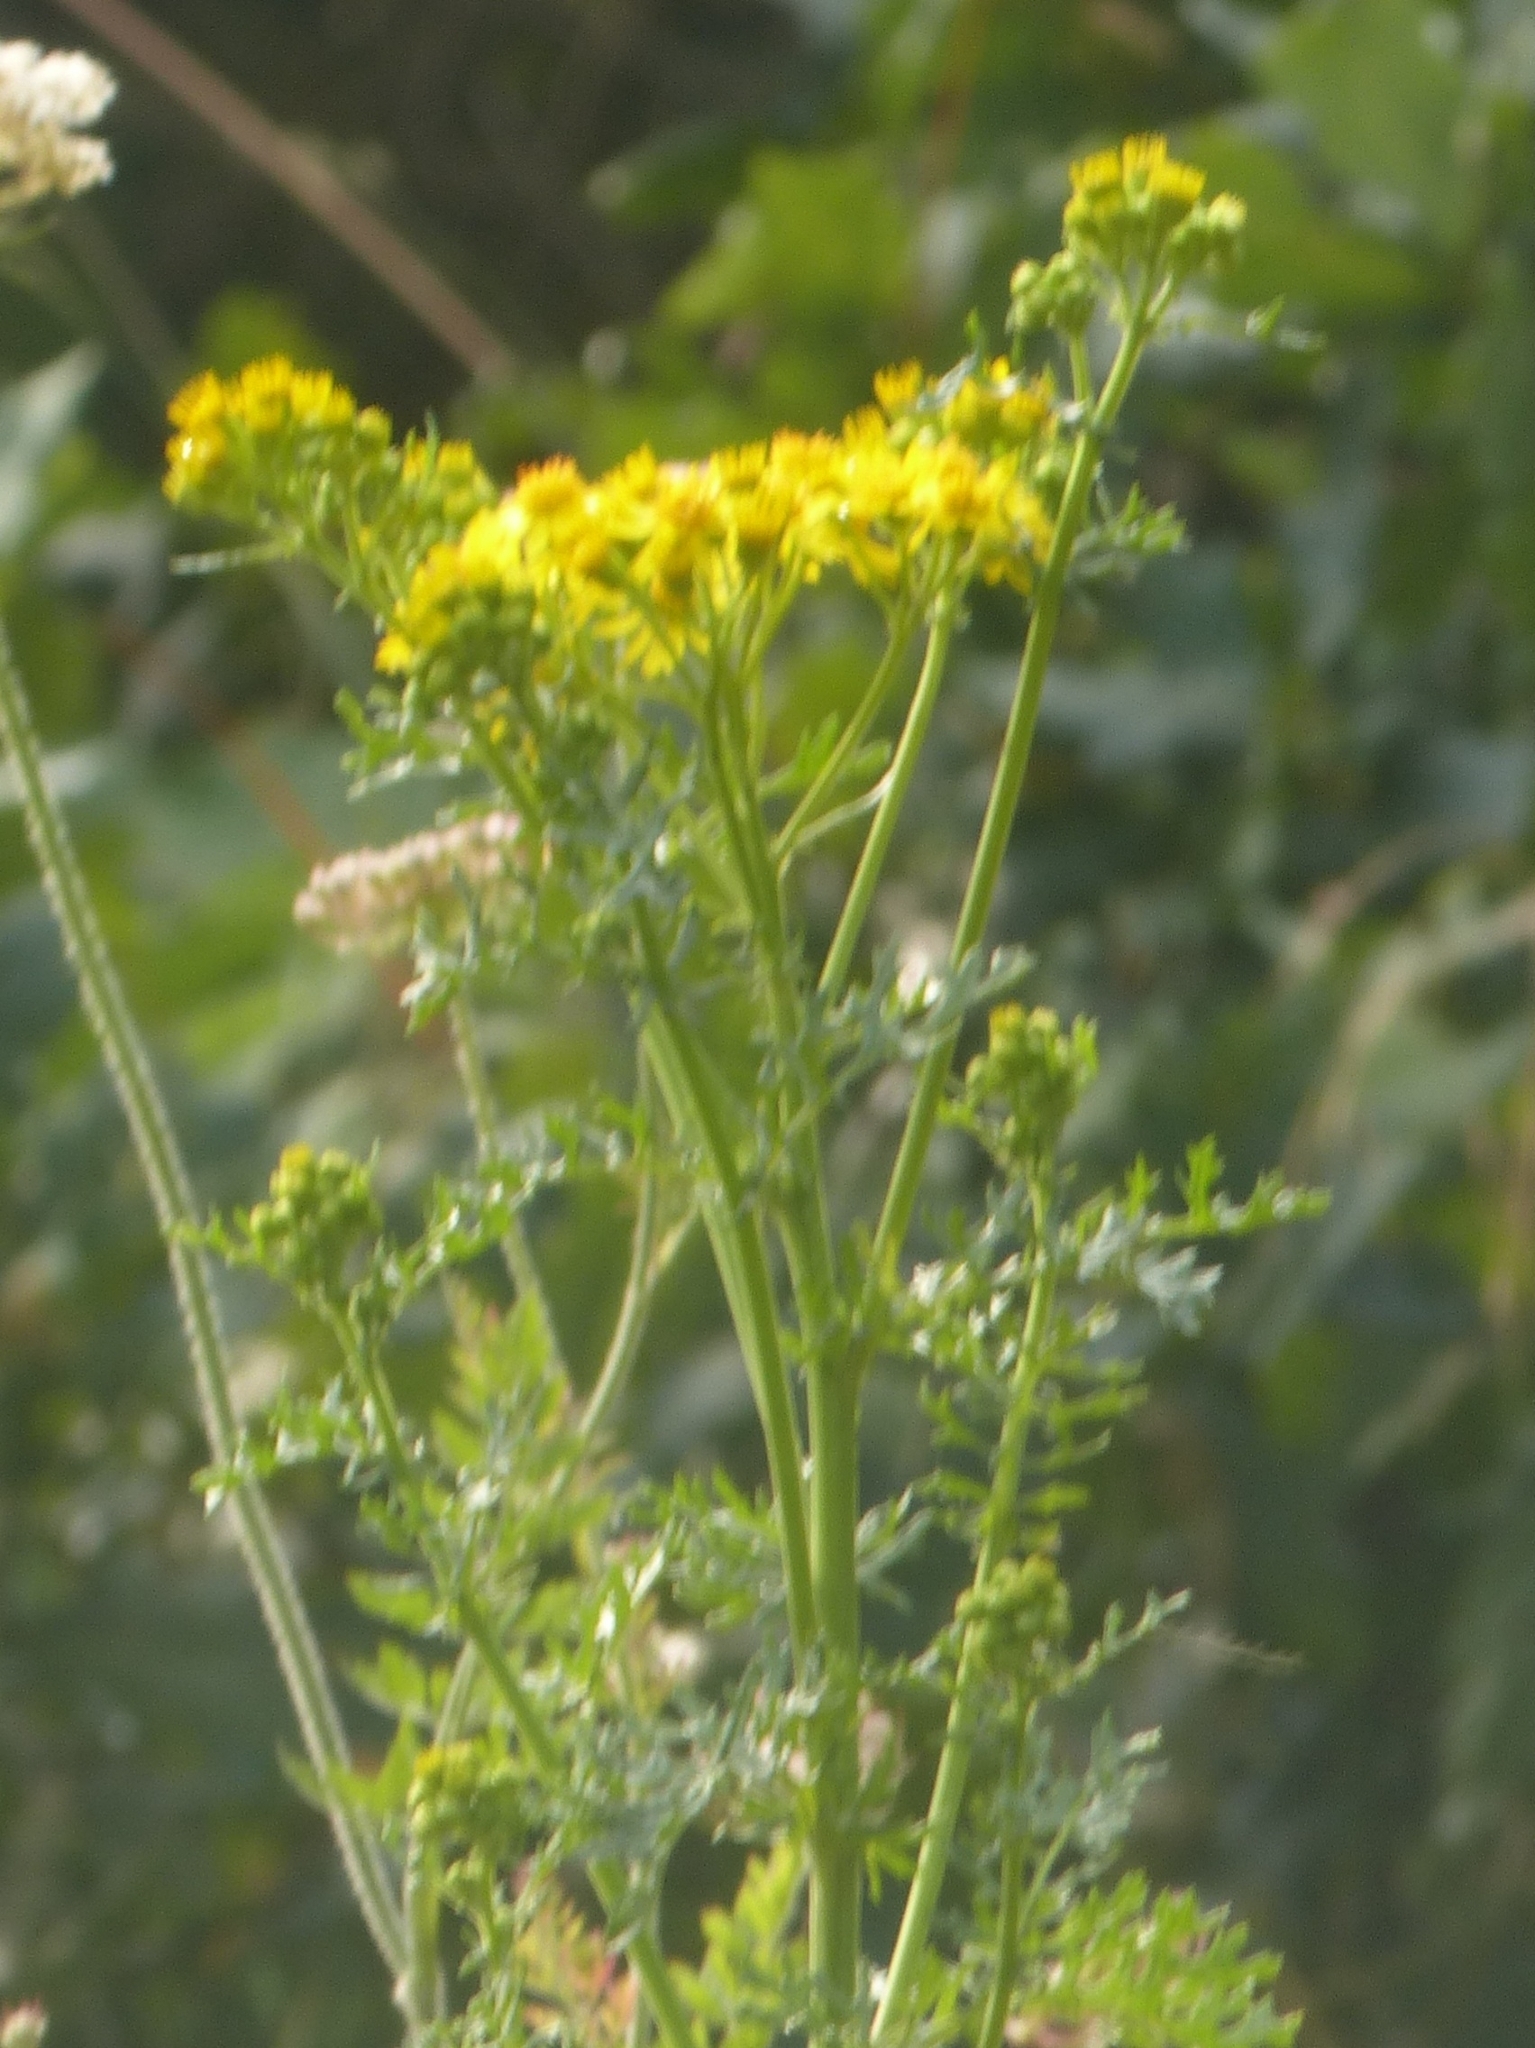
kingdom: Plantae
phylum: Tracheophyta
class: Magnoliopsida
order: Asterales
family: Asteraceae
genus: Jacobaea
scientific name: Jacobaea vulgaris
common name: Stinking willie
